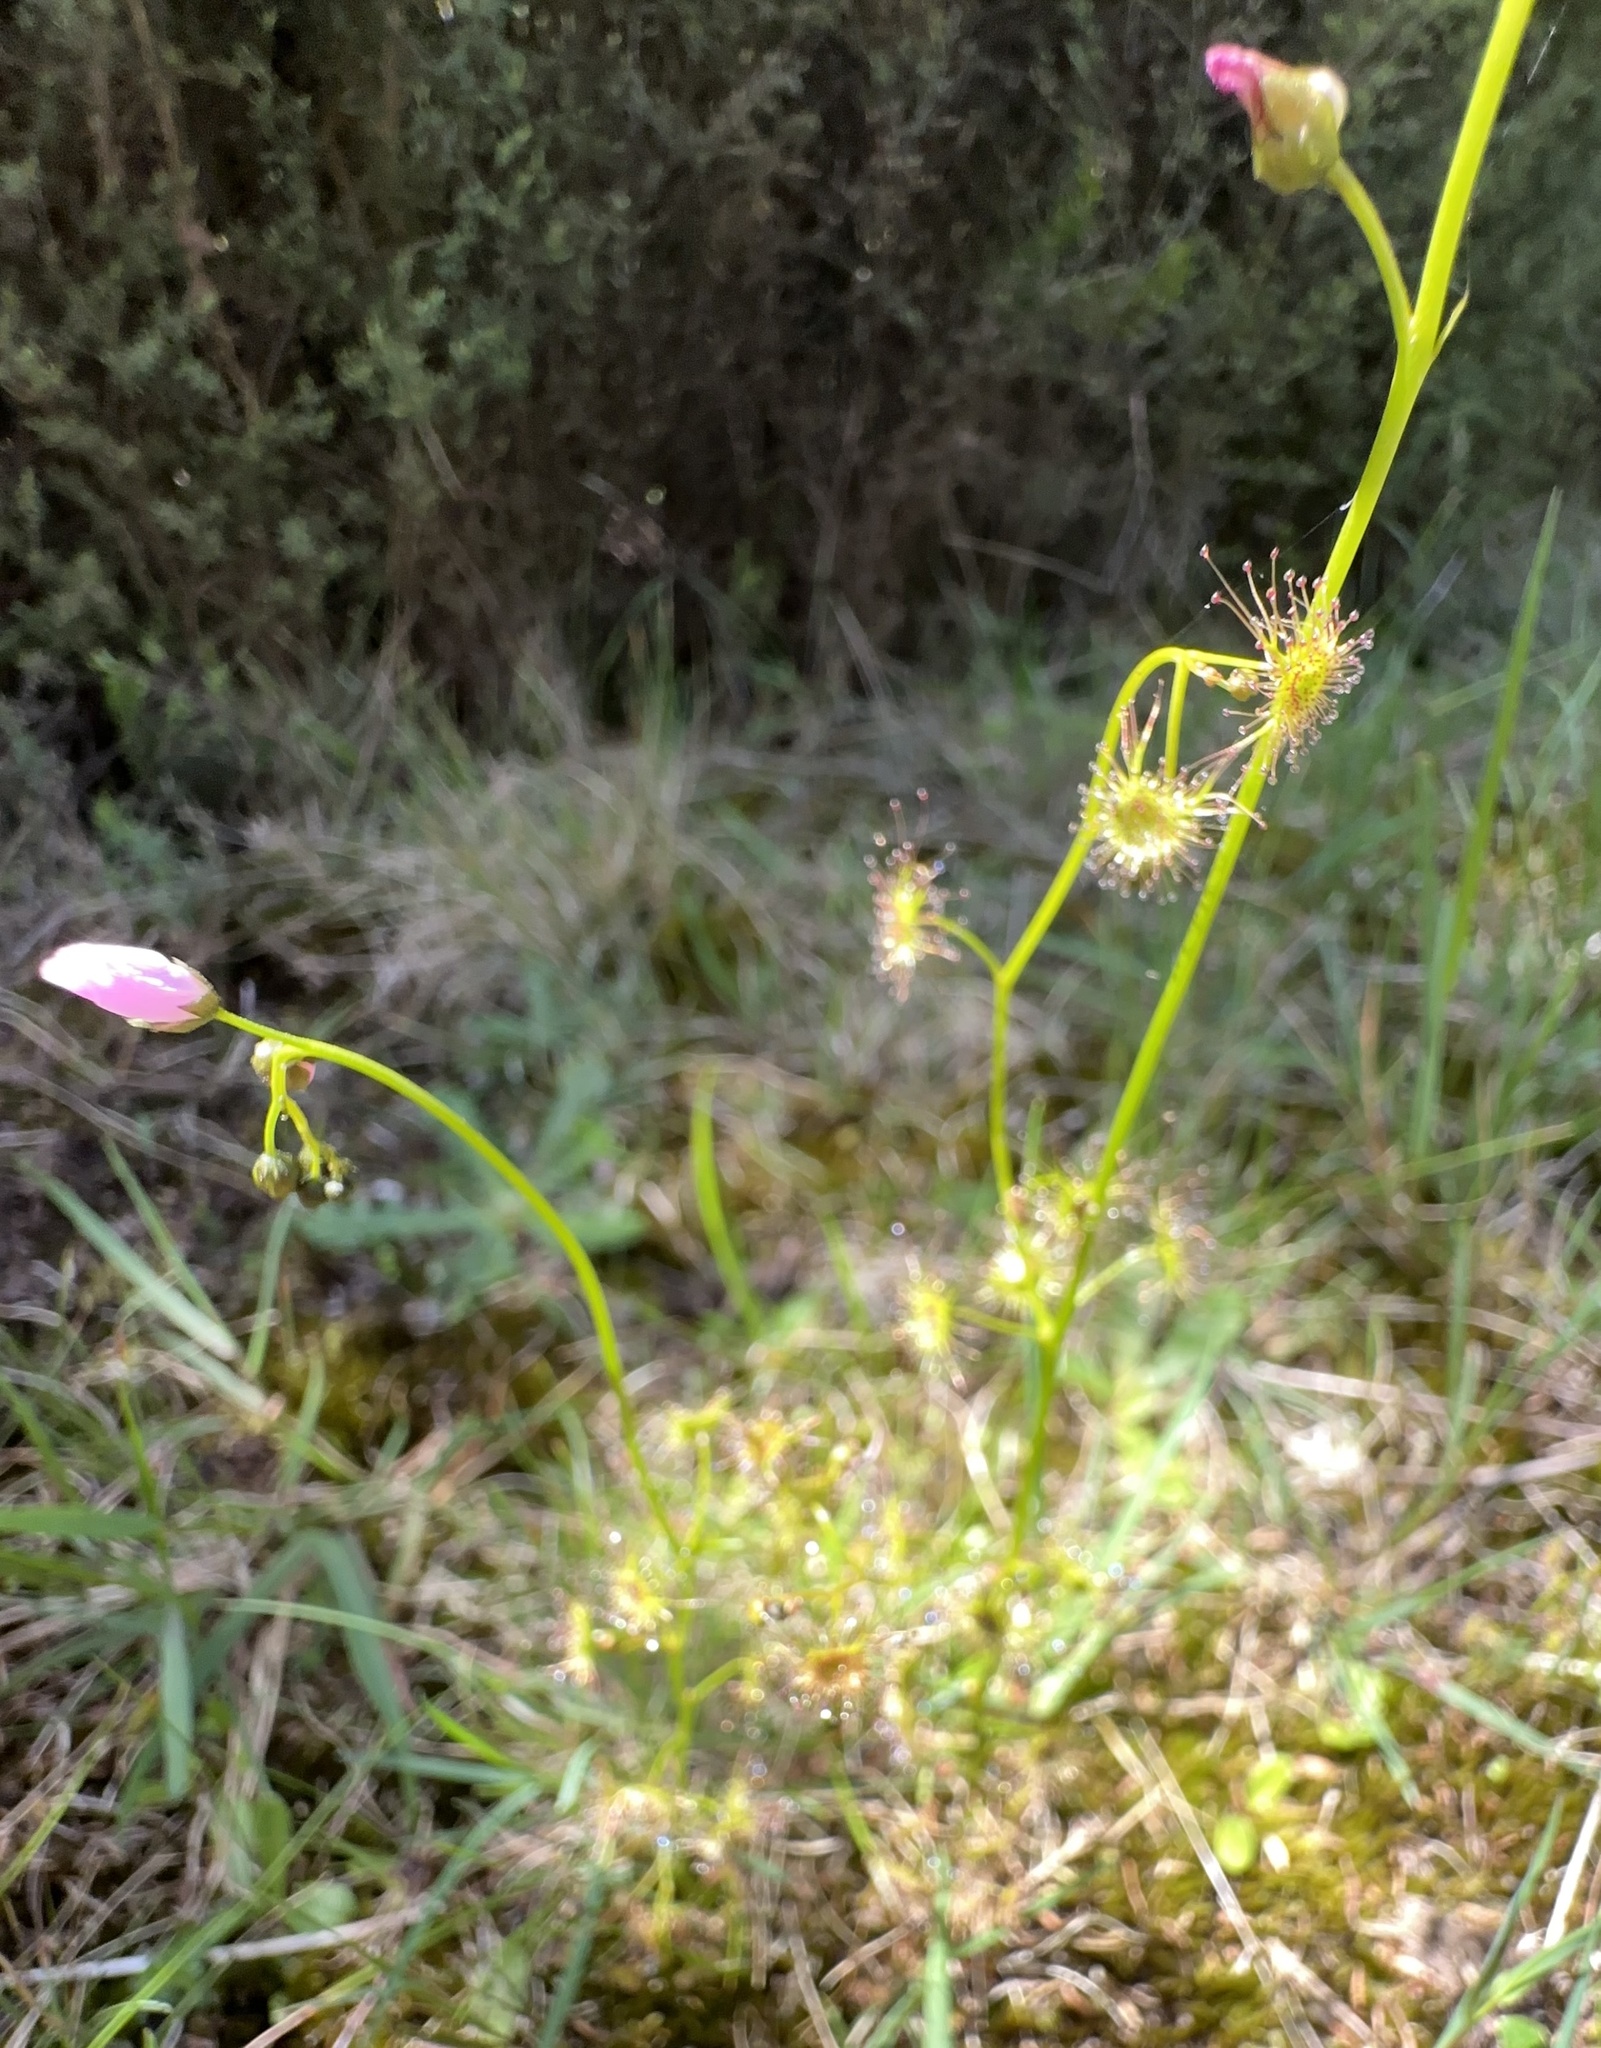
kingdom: Plantae
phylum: Tracheophyta
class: Magnoliopsida
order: Caryophyllales
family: Droseraceae
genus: Drosera
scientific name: Drosera peltata
